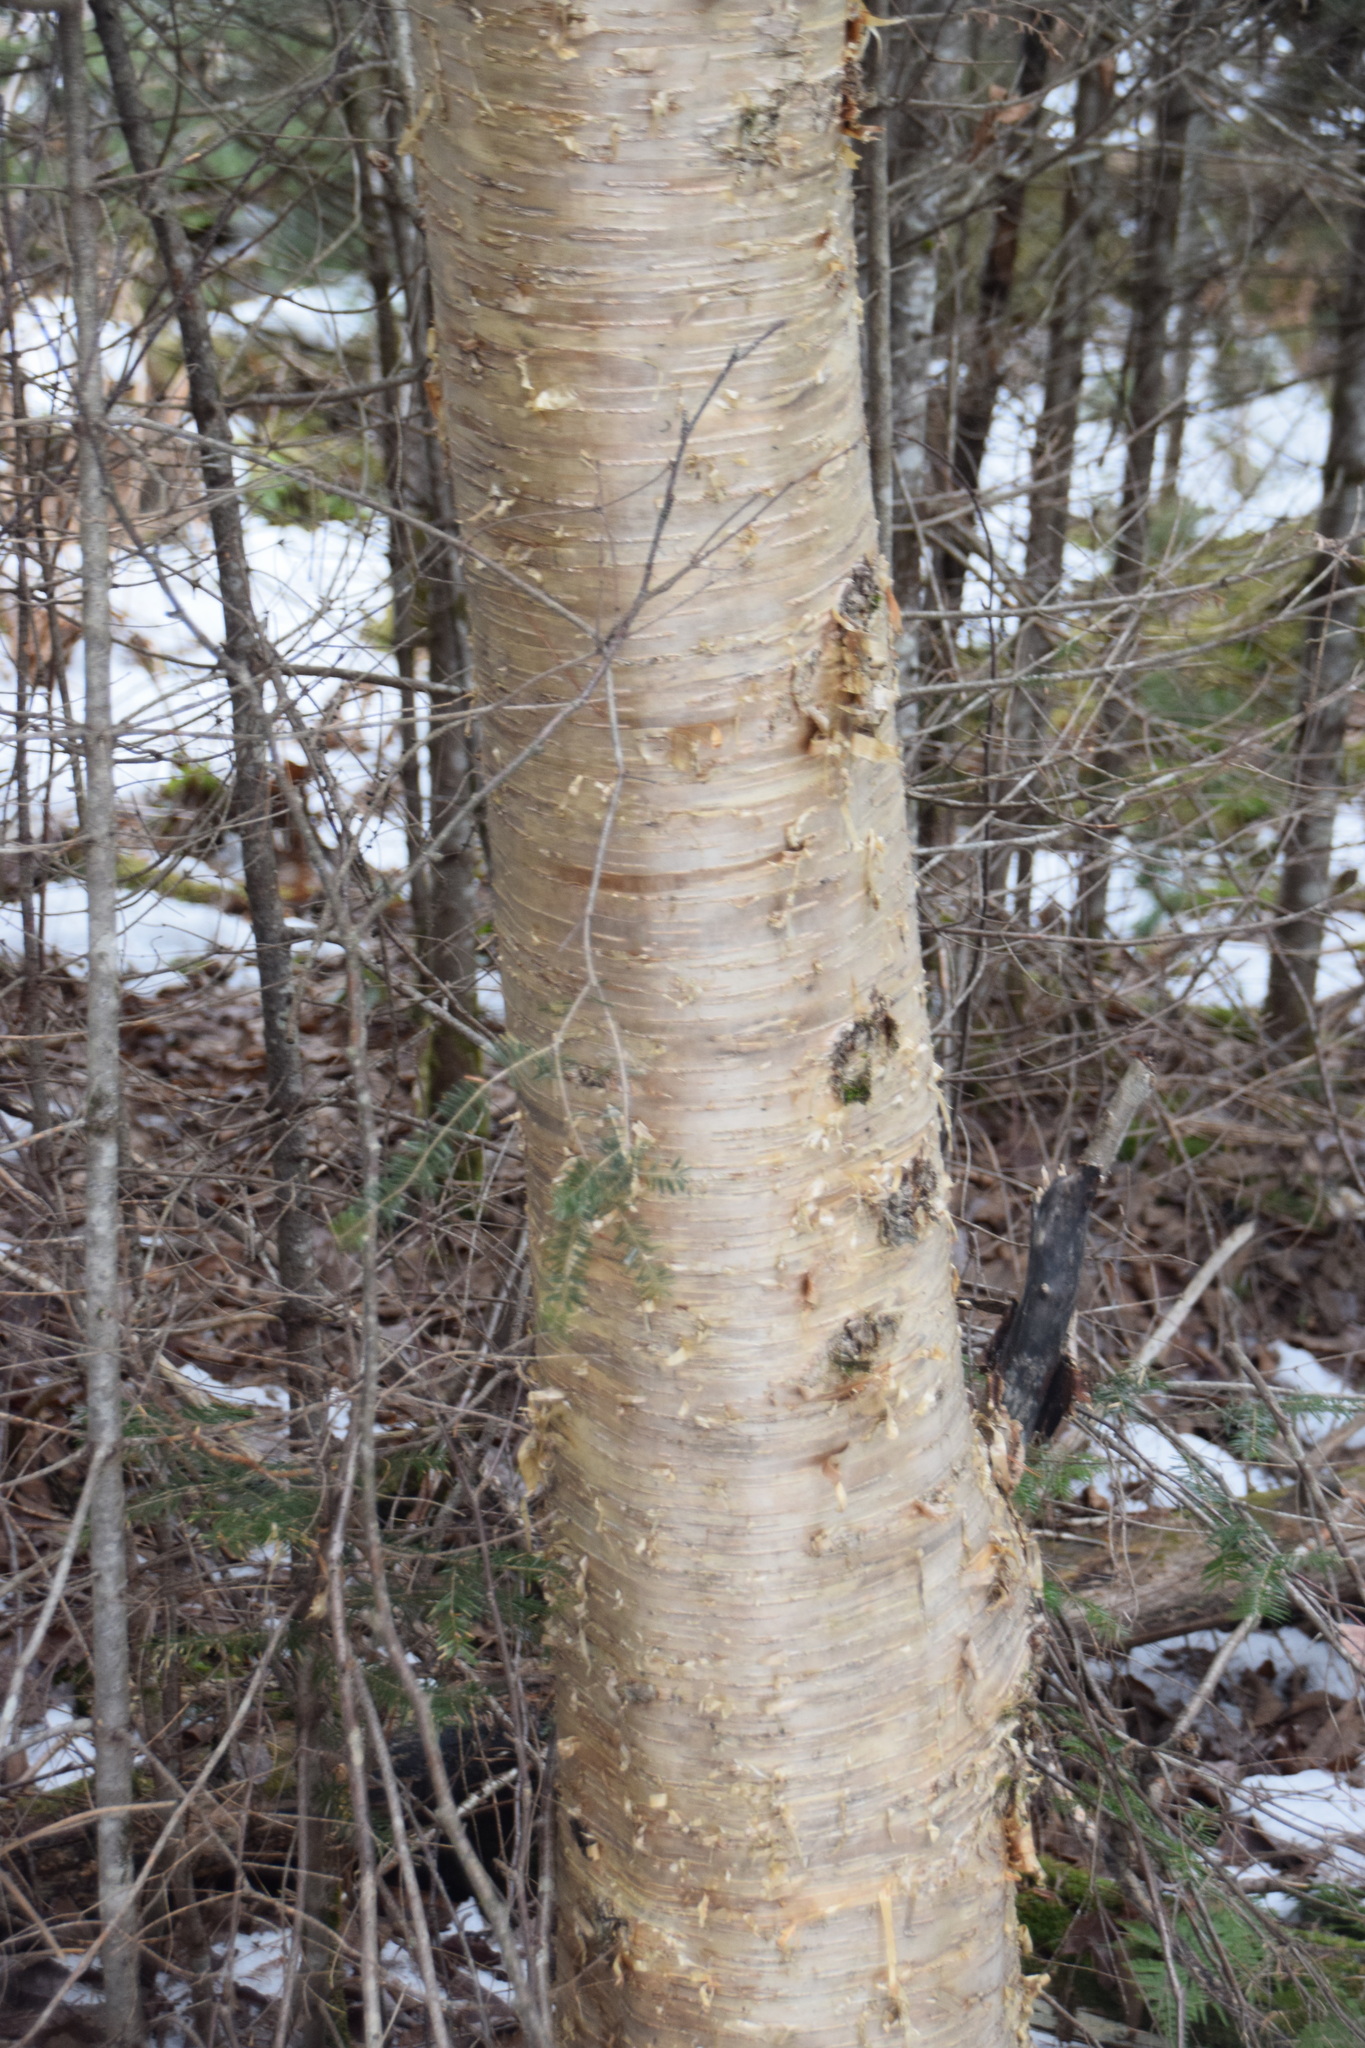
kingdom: Plantae
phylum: Tracheophyta
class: Magnoliopsida
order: Fagales
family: Betulaceae
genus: Betula
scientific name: Betula alleghaniensis
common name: Yellow birch
